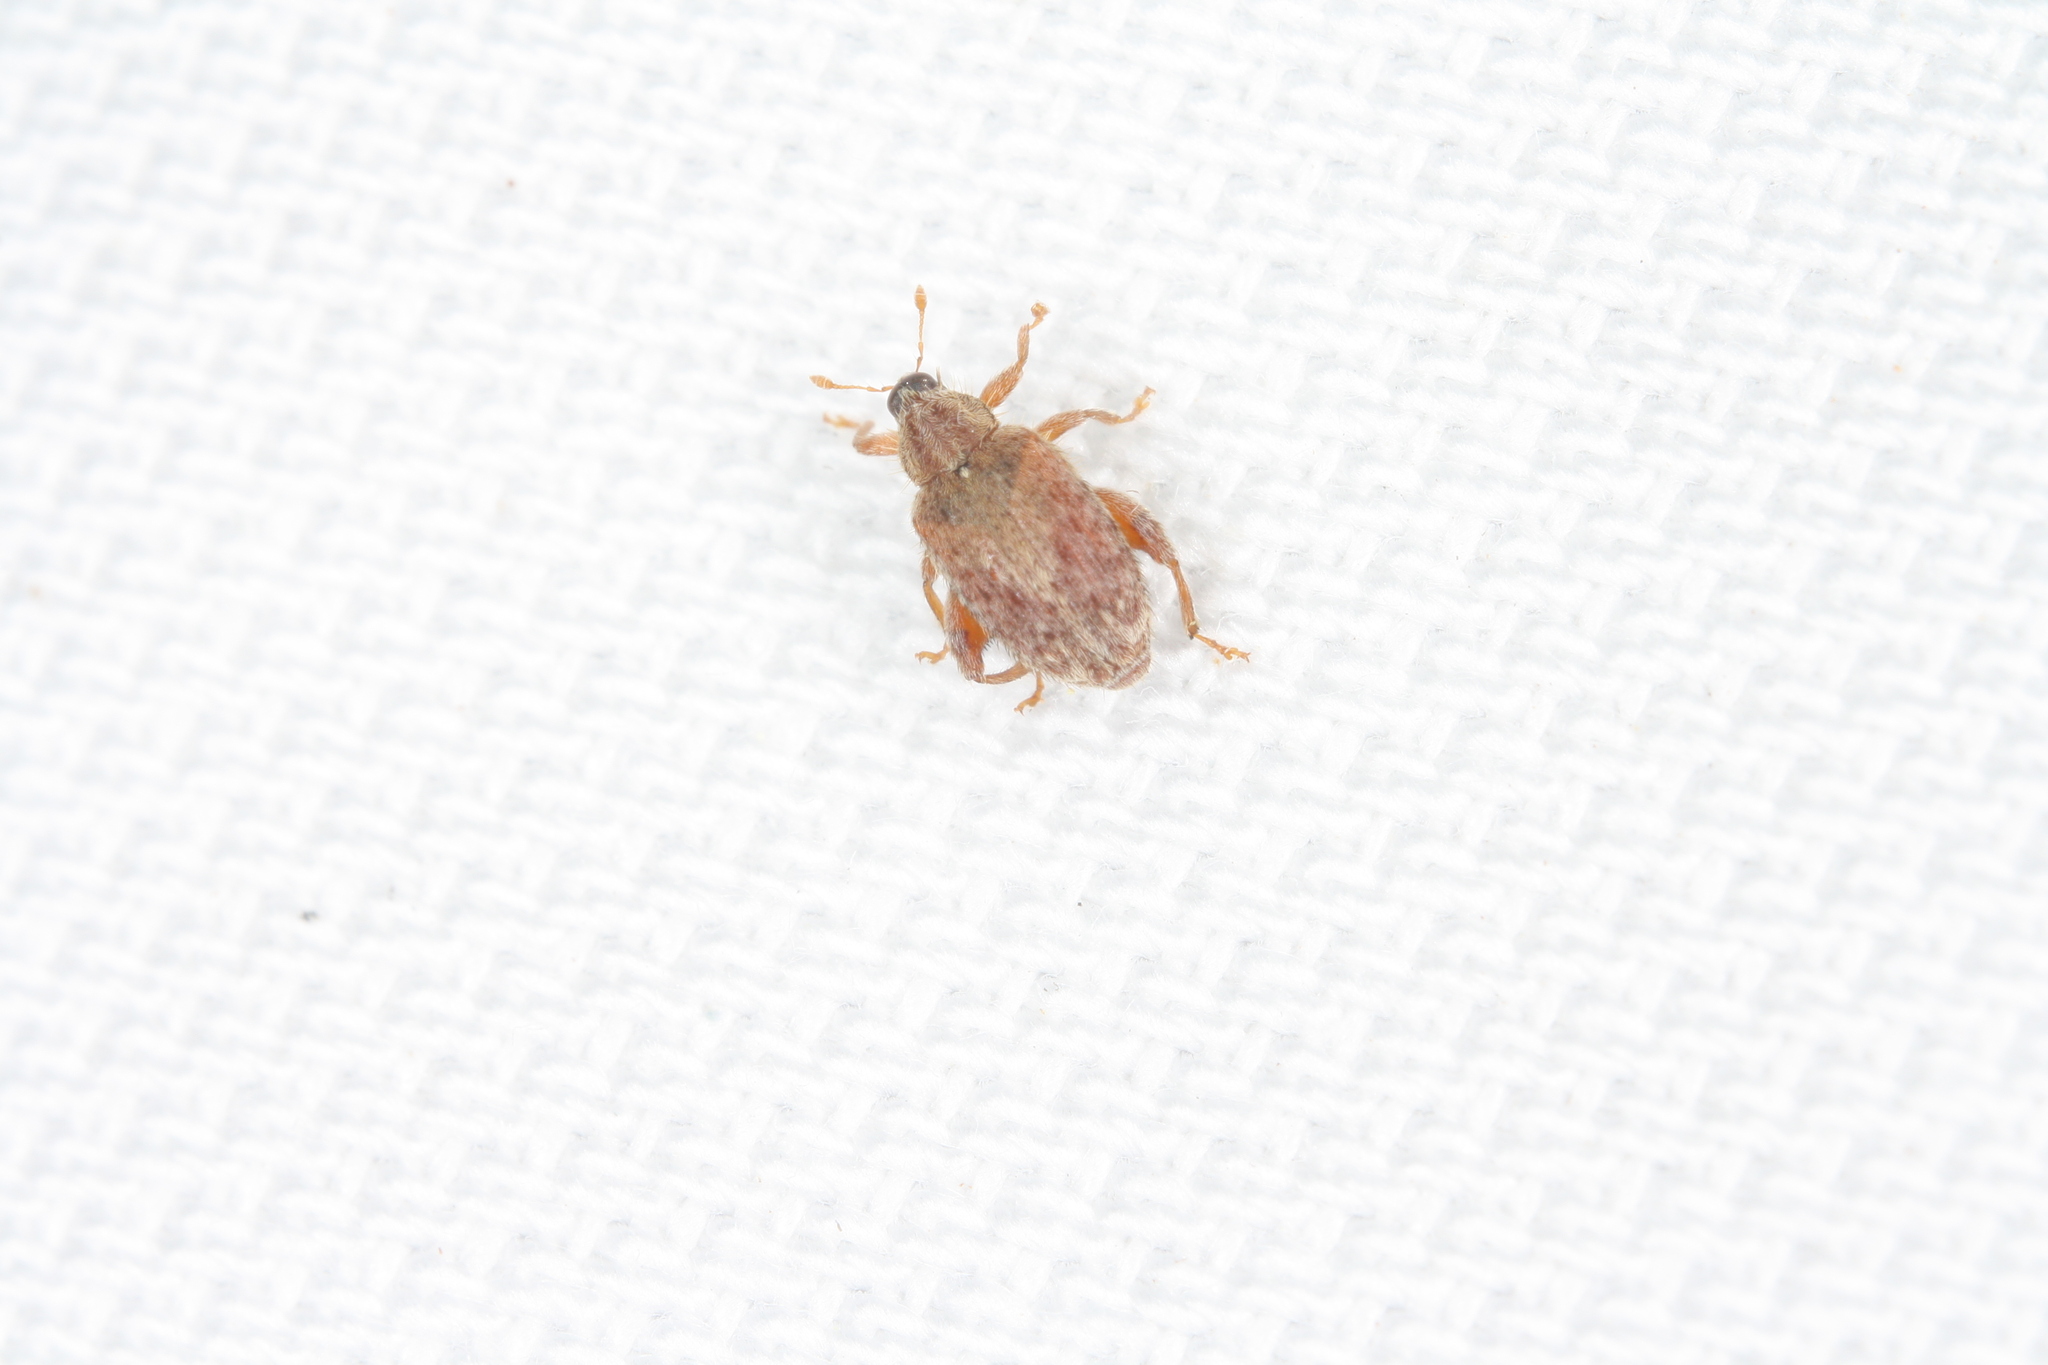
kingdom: Animalia
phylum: Arthropoda
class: Insecta
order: Coleoptera
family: Curculionidae
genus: Orchestes
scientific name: Orchestes quercus
